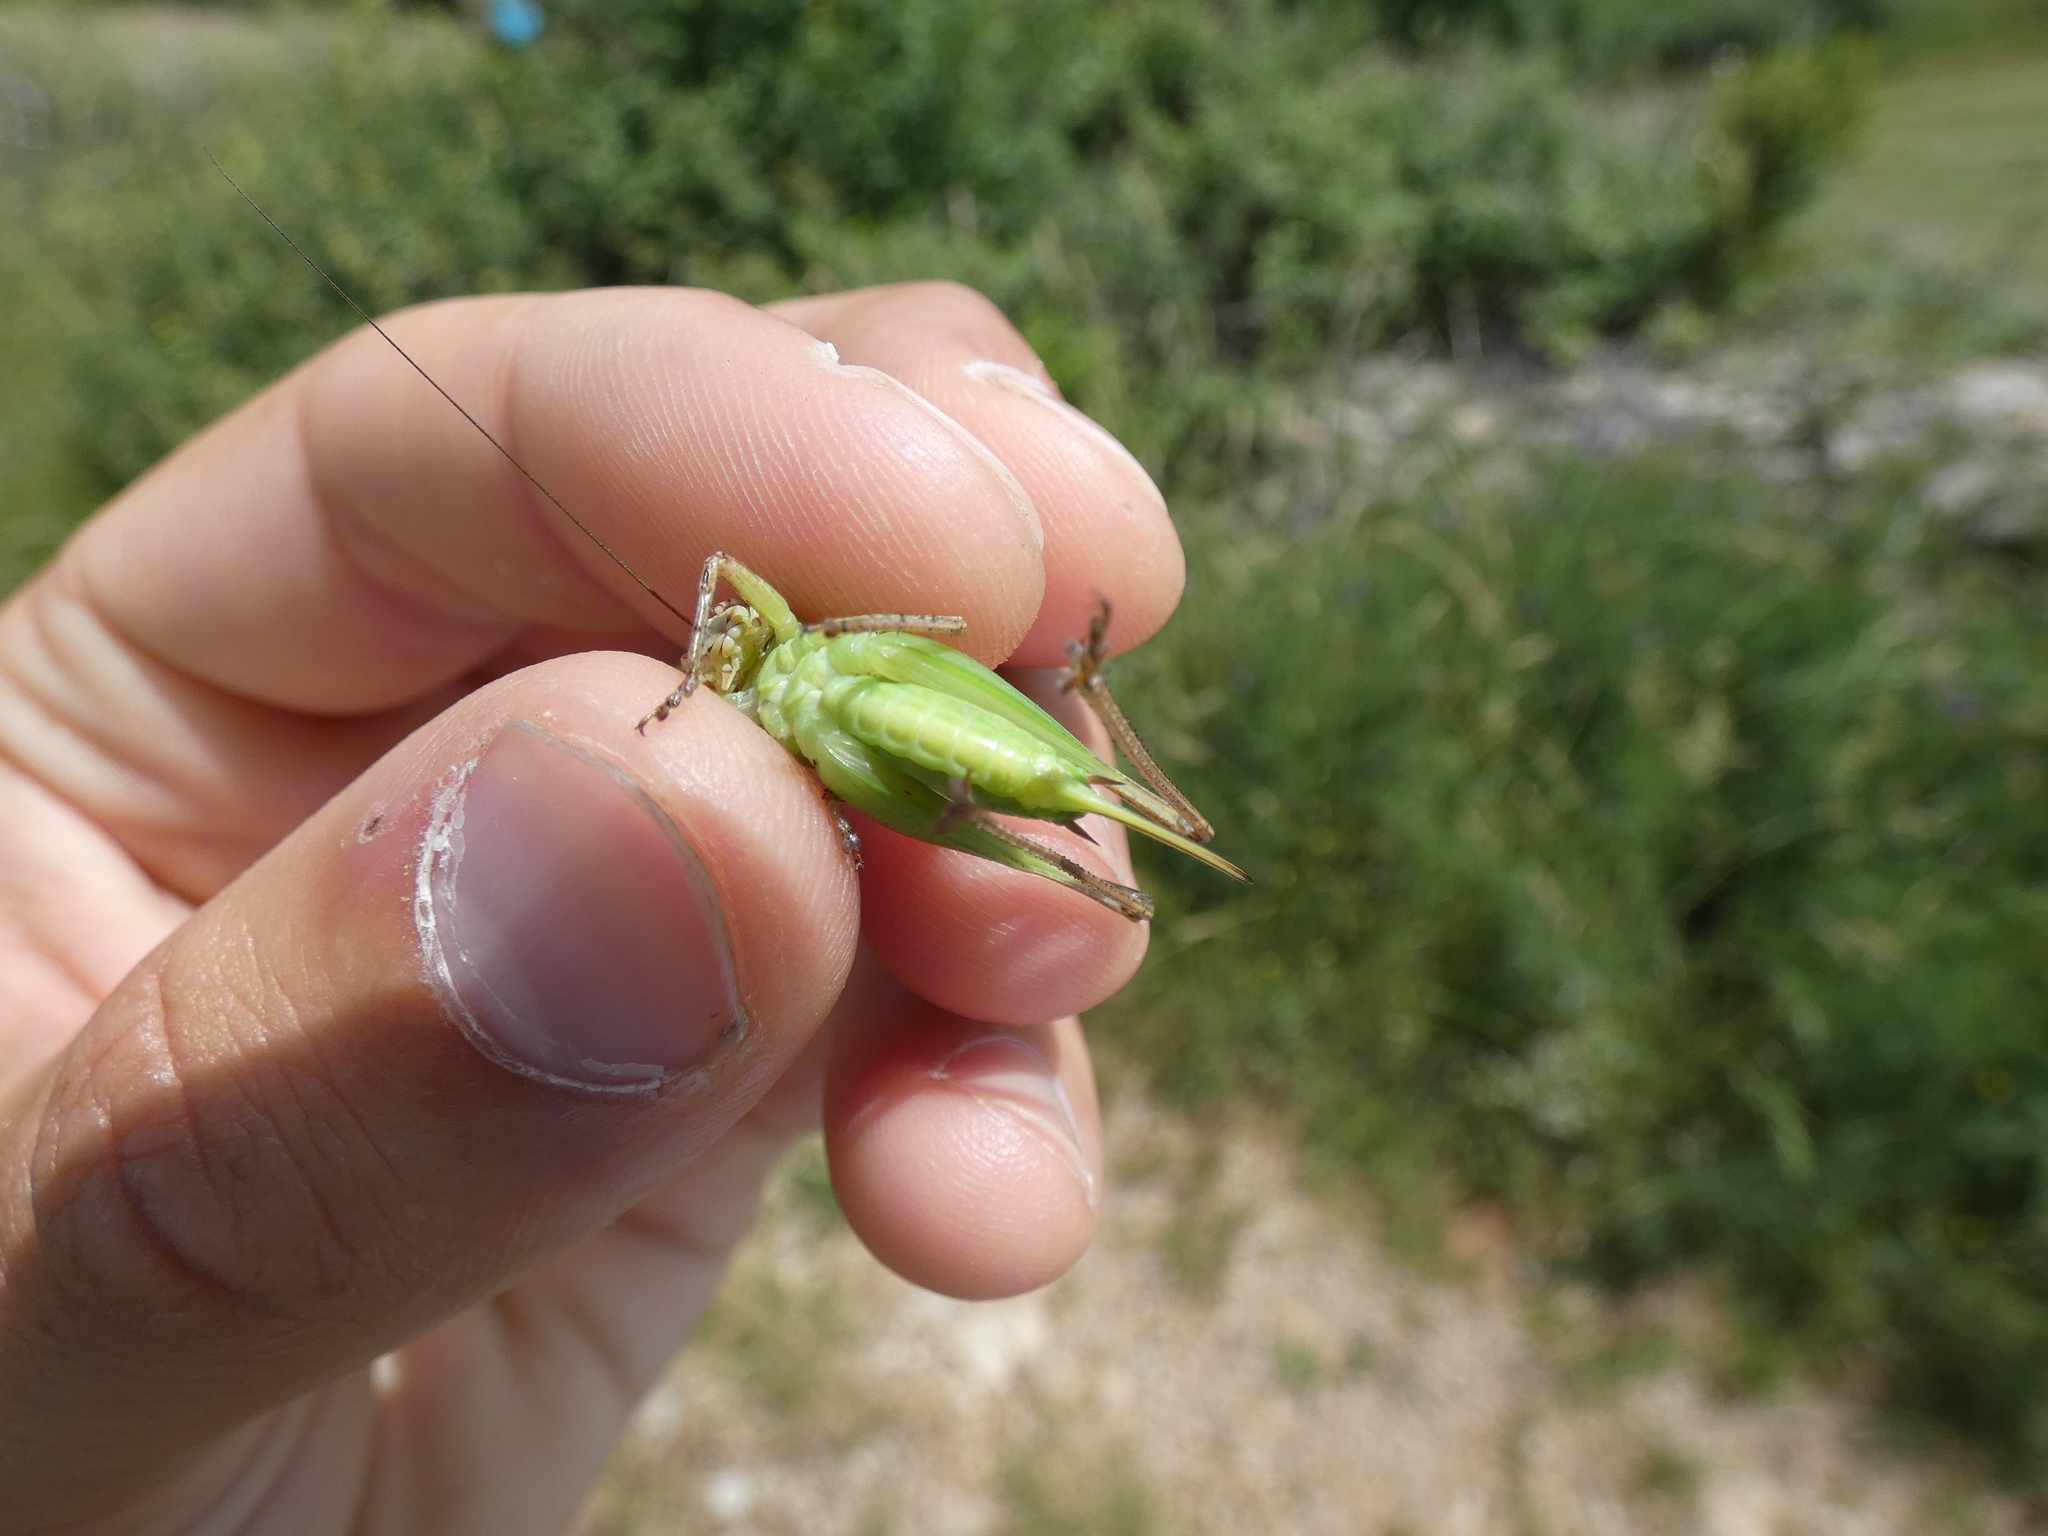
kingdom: Animalia
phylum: Arthropoda
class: Insecta
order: Orthoptera
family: Tettigoniidae
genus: Platycleis
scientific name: Platycleis albopunctata
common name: Grey bush-cricket
